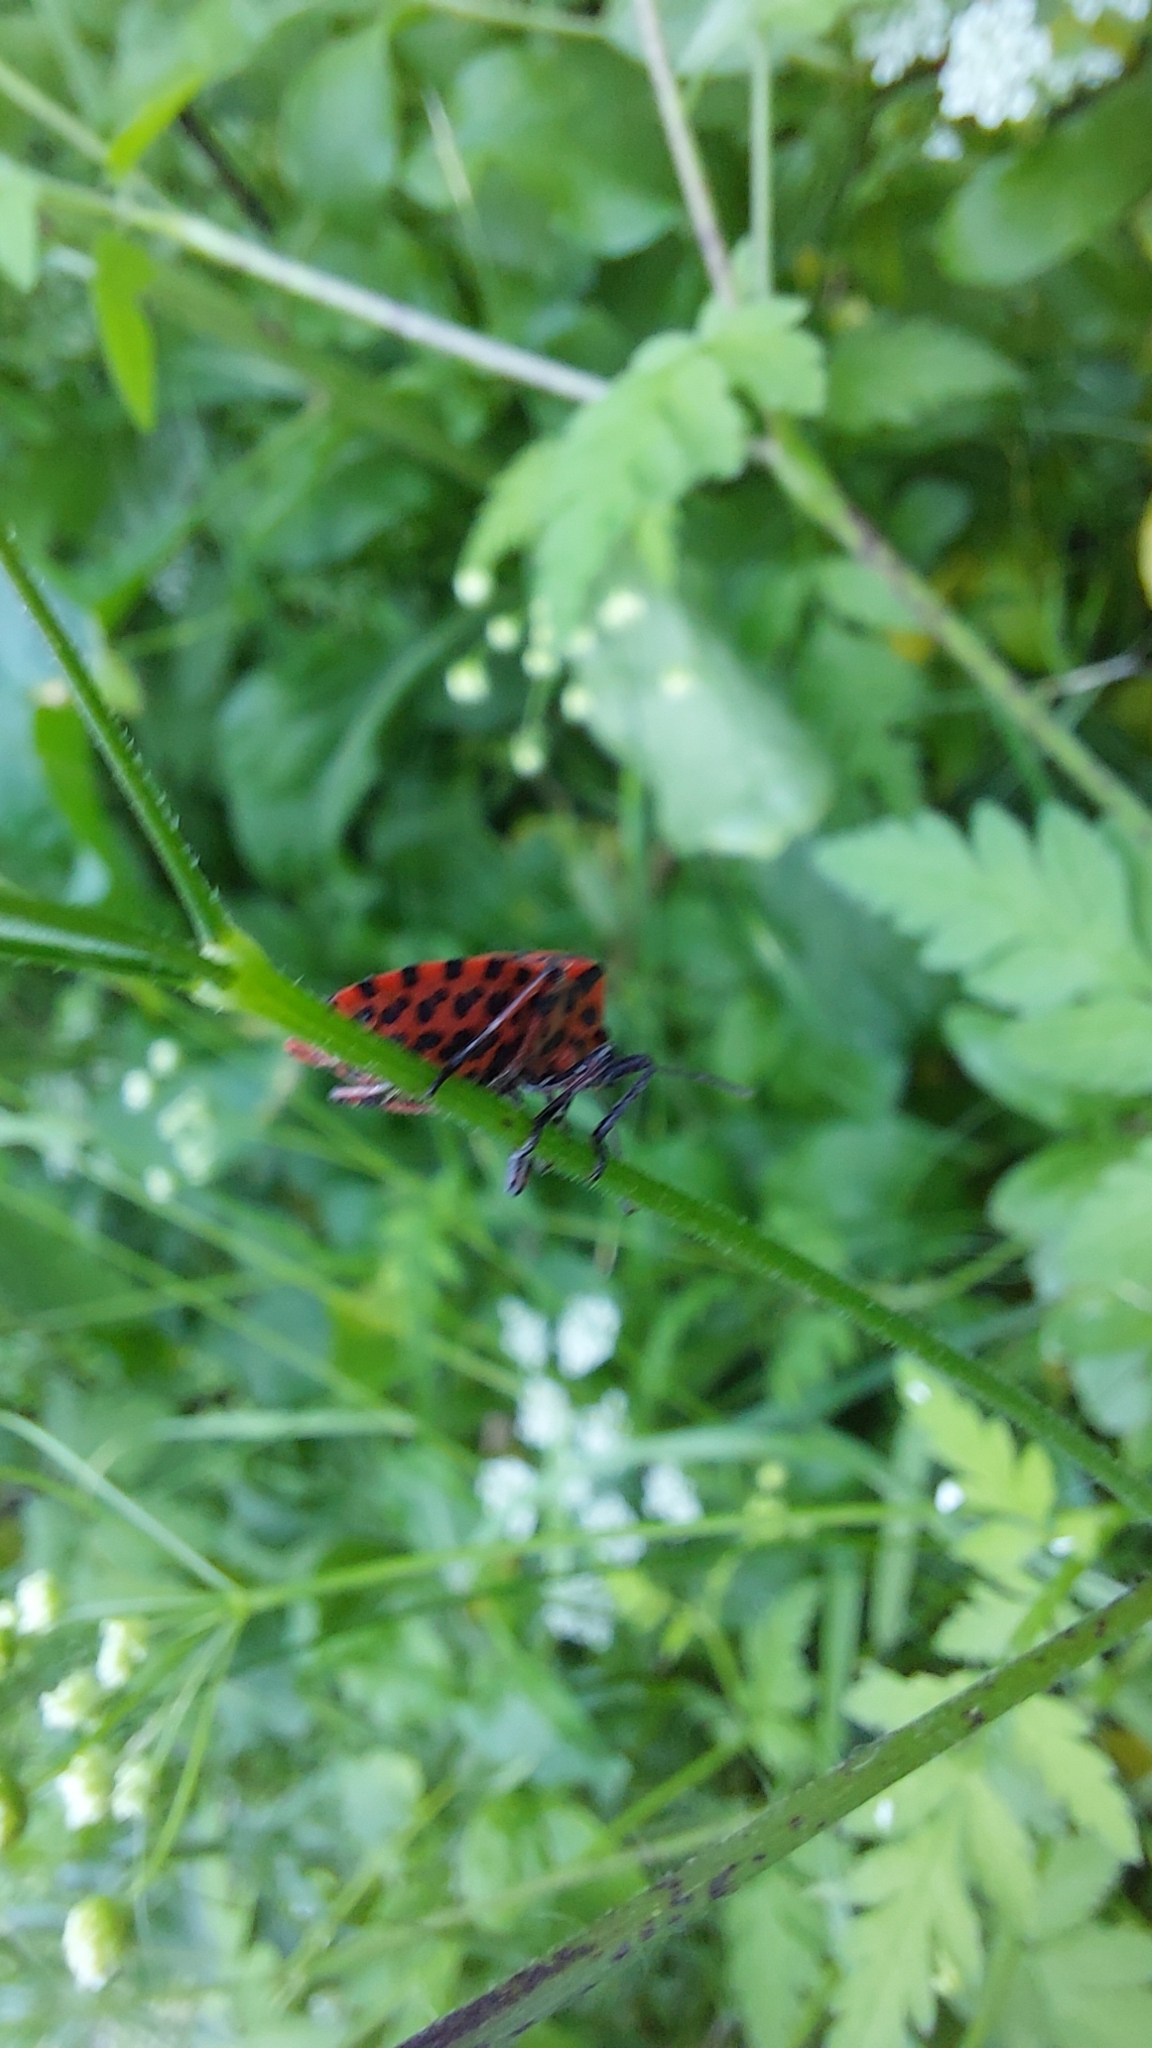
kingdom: Animalia
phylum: Arthropoda
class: Insecta
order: Hemiptera
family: Pentatomidae
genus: Graphosoma
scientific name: Graphosoma italicum
